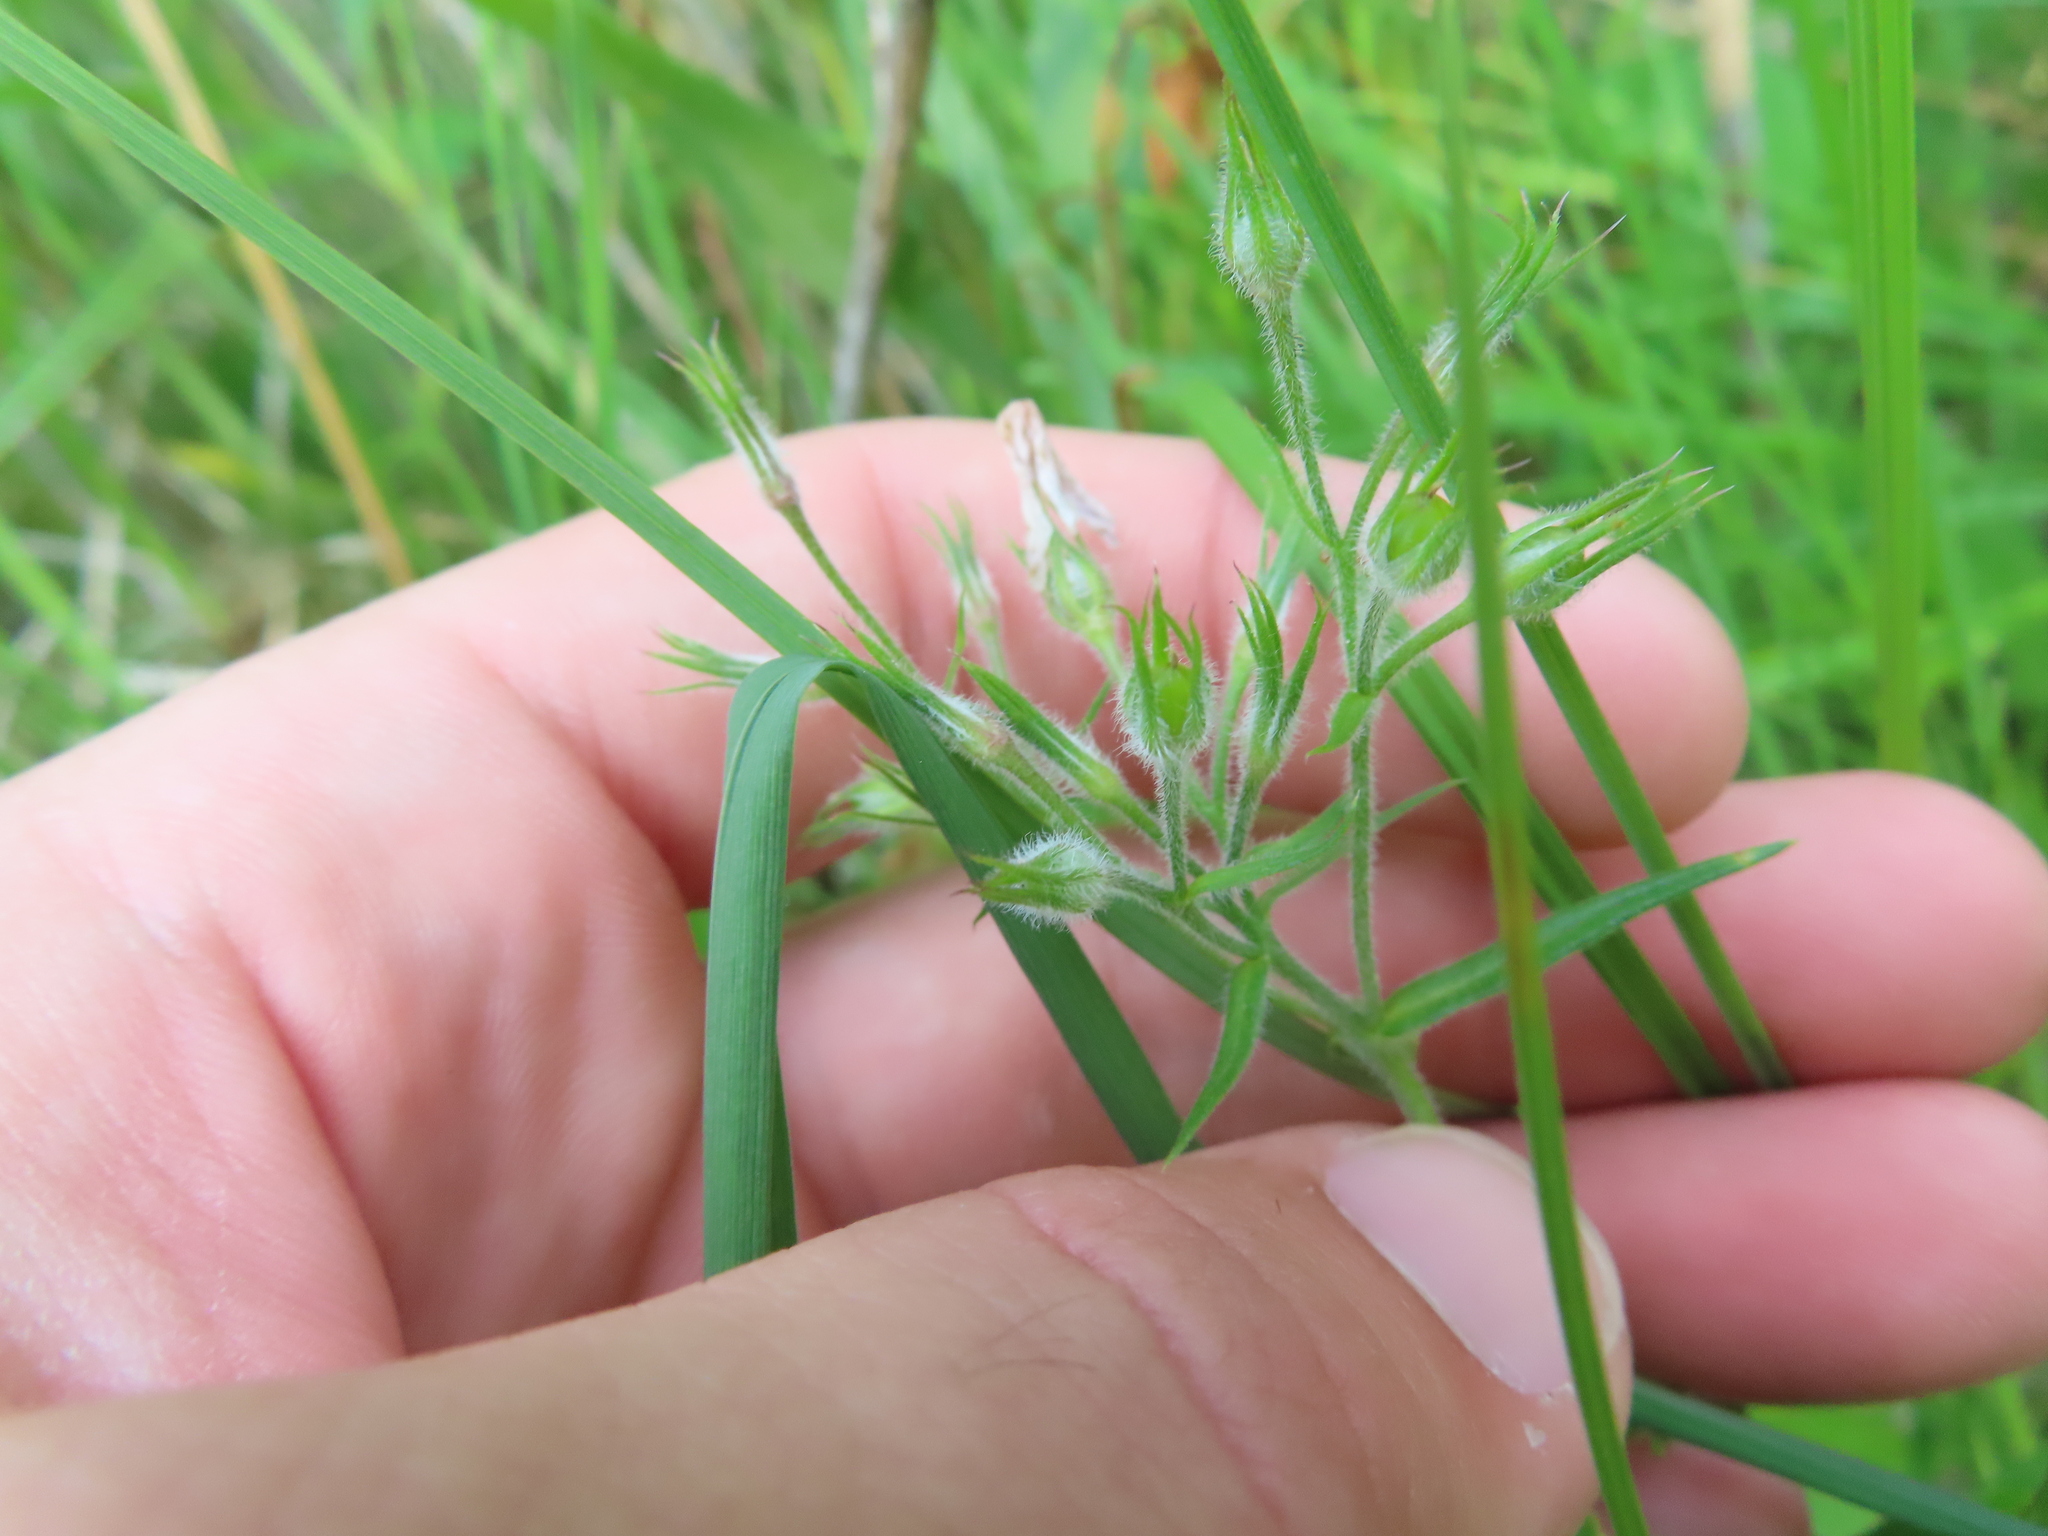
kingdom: Plantae
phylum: Tracheophyta
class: Magnoliopsida
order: Ericales
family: Polemoniaceae
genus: Phlox
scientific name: Phlox pilosa
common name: Prairie phlox
